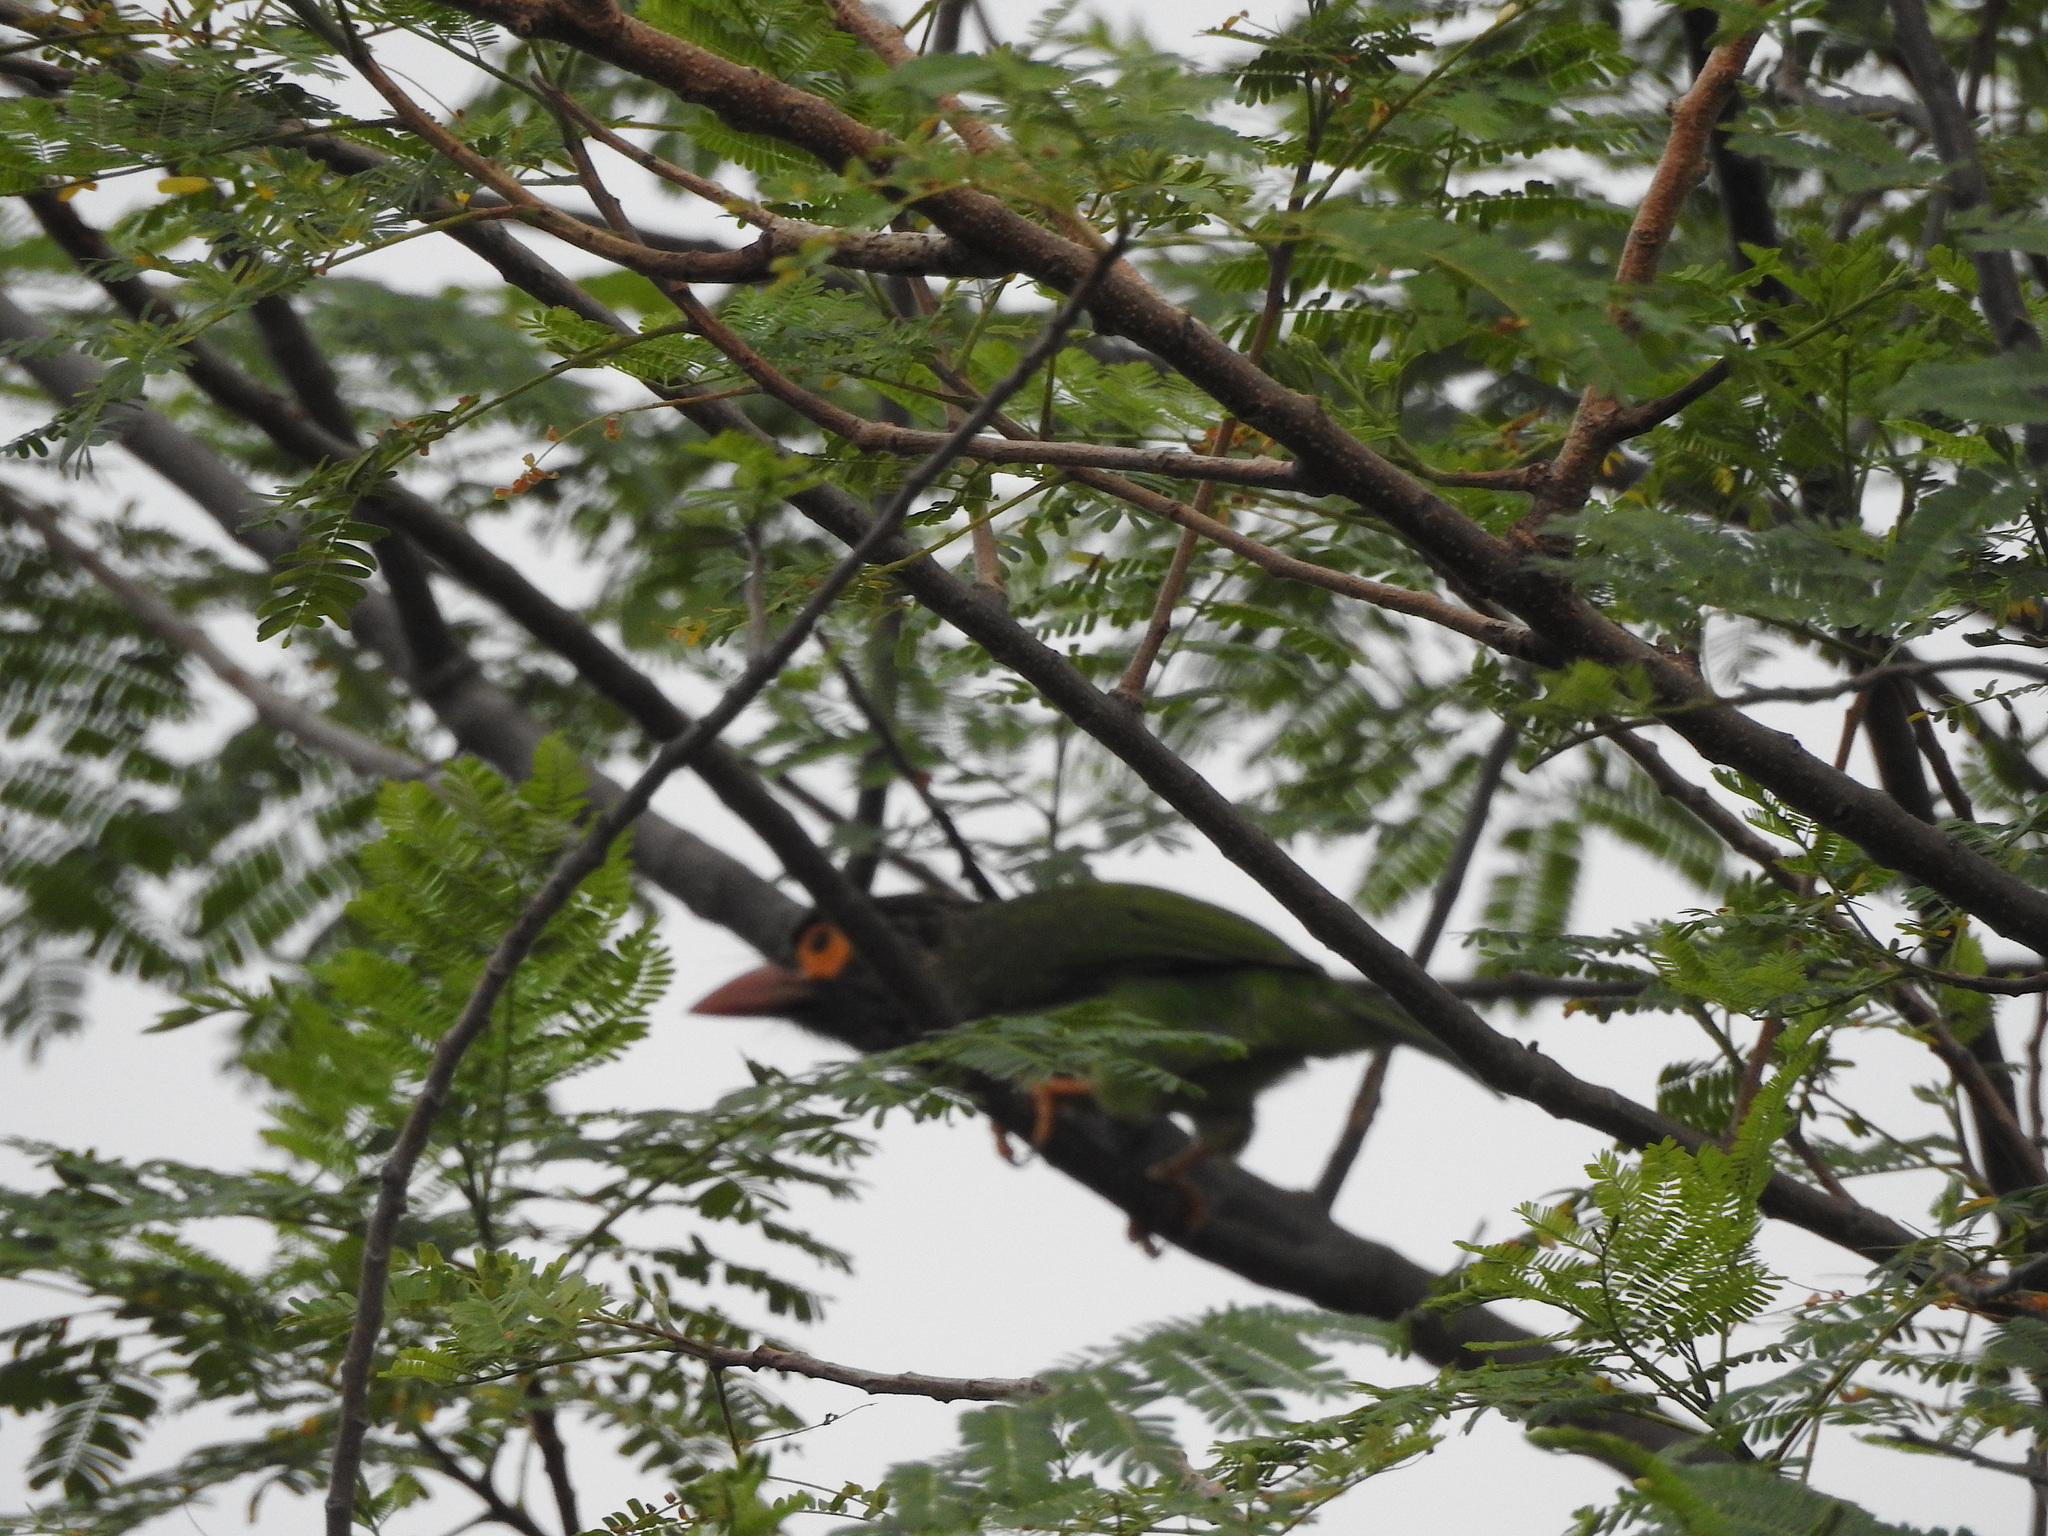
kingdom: Animalia
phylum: Chordata
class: Aves
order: Piciformes
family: Megalaimidae
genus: Psilopogon
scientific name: Psilopogon zeylanicus
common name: Brown-headed barbet
